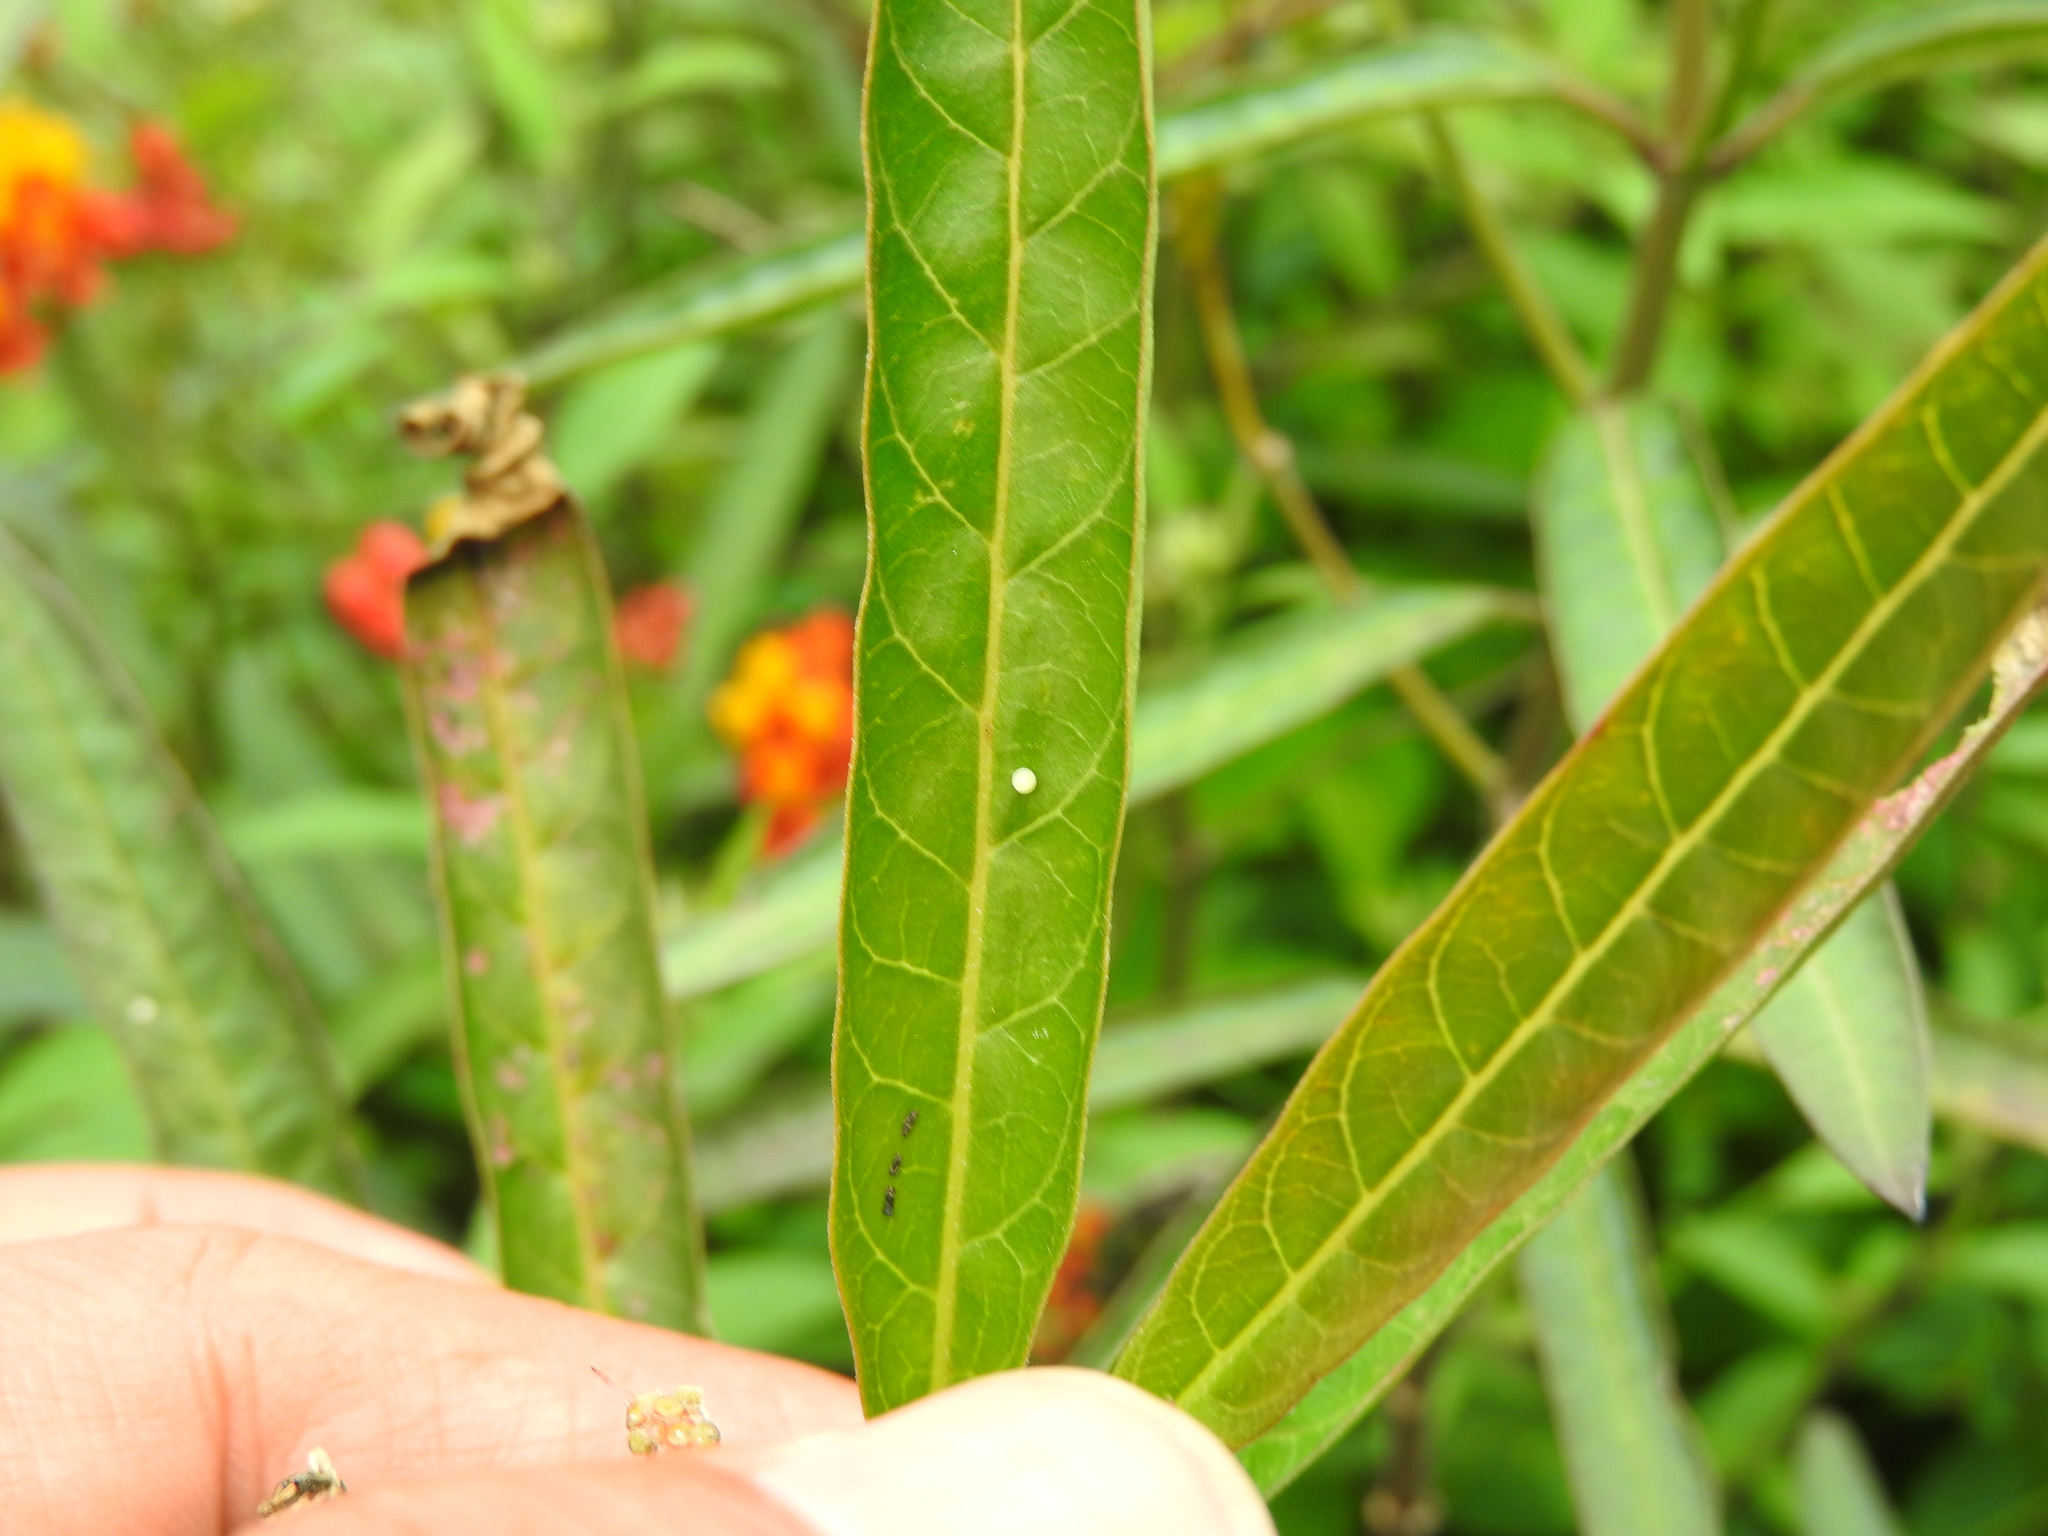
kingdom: Animalia
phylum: Arthropoda
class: Insecta
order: Lepidoptera
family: Nymphalidae
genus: Danaus
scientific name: Danaus plexippus
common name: Monarch
